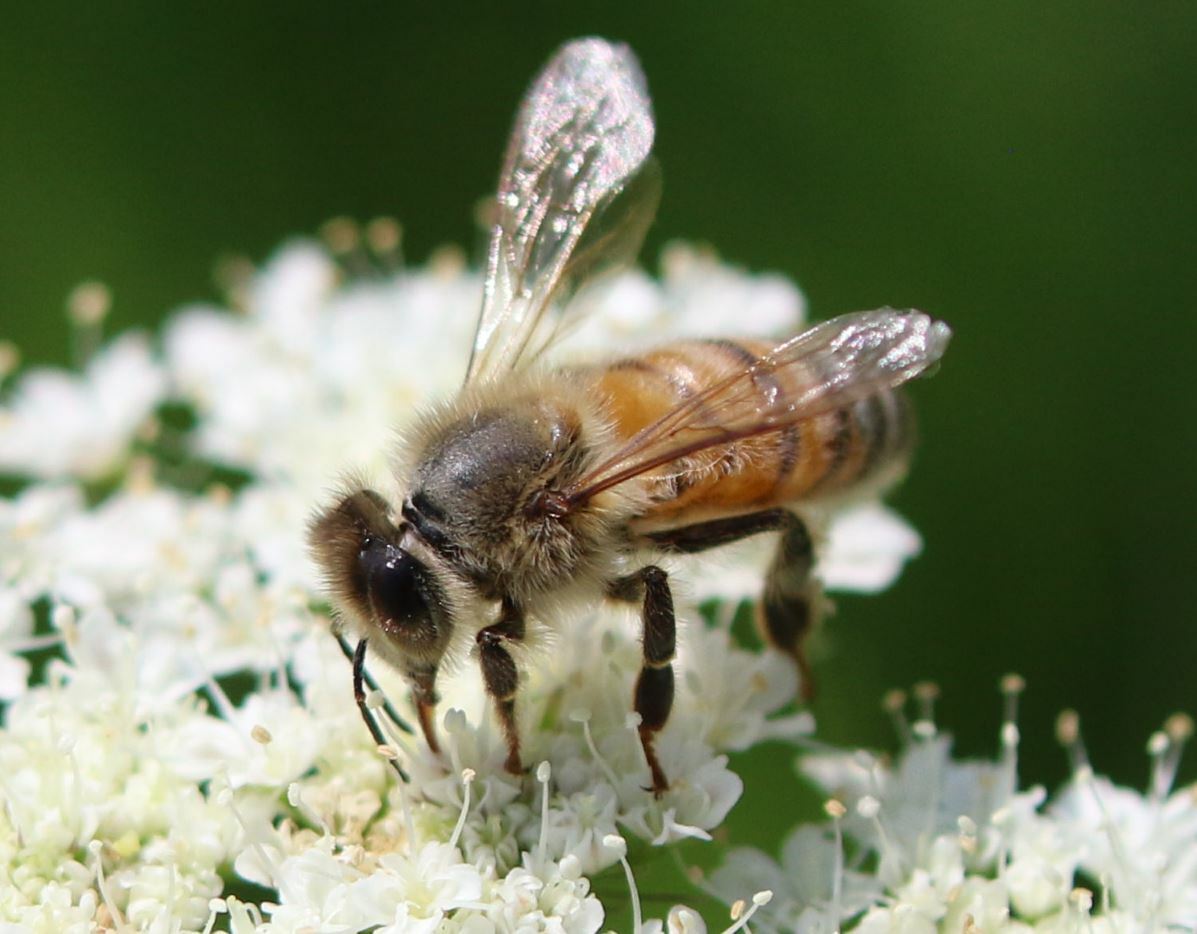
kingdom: Animalia
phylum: Arthropoda
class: Insecta
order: Hymenoptera
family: Apidae
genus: Apis
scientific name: Apis mellifera
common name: Honey bee
